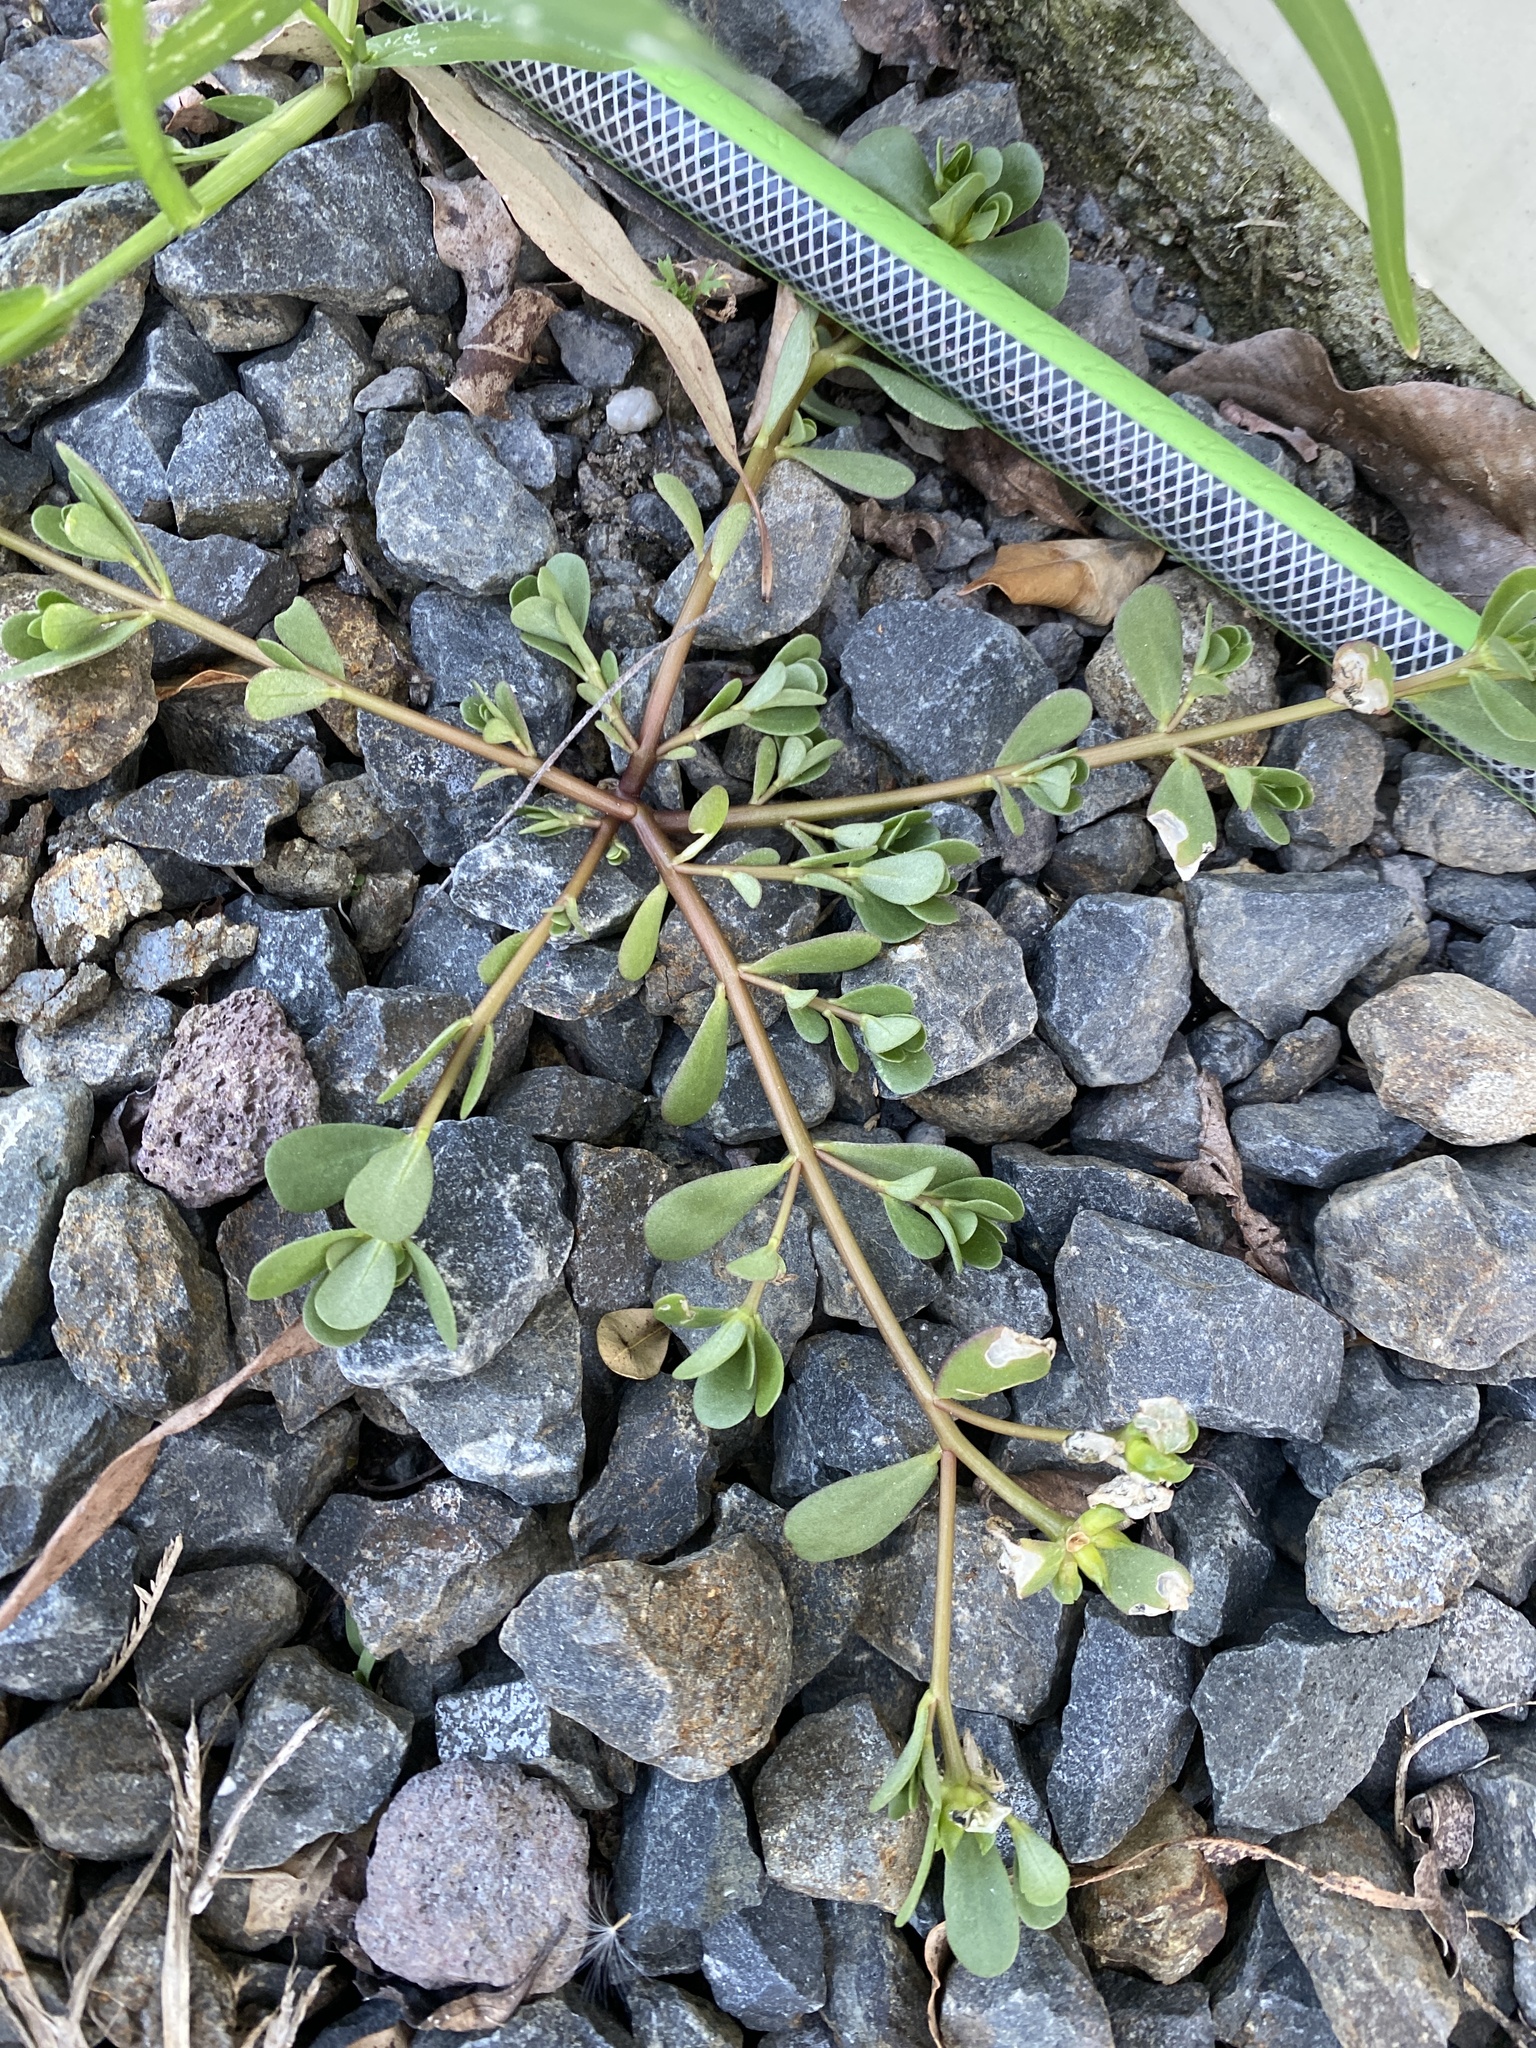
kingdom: Plantae
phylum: Tracheophyta
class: Magnoliopsida
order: Caryophyllales
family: Portulacaceae
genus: Portulaca
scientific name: Portulaca oleracea
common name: Common purslane
